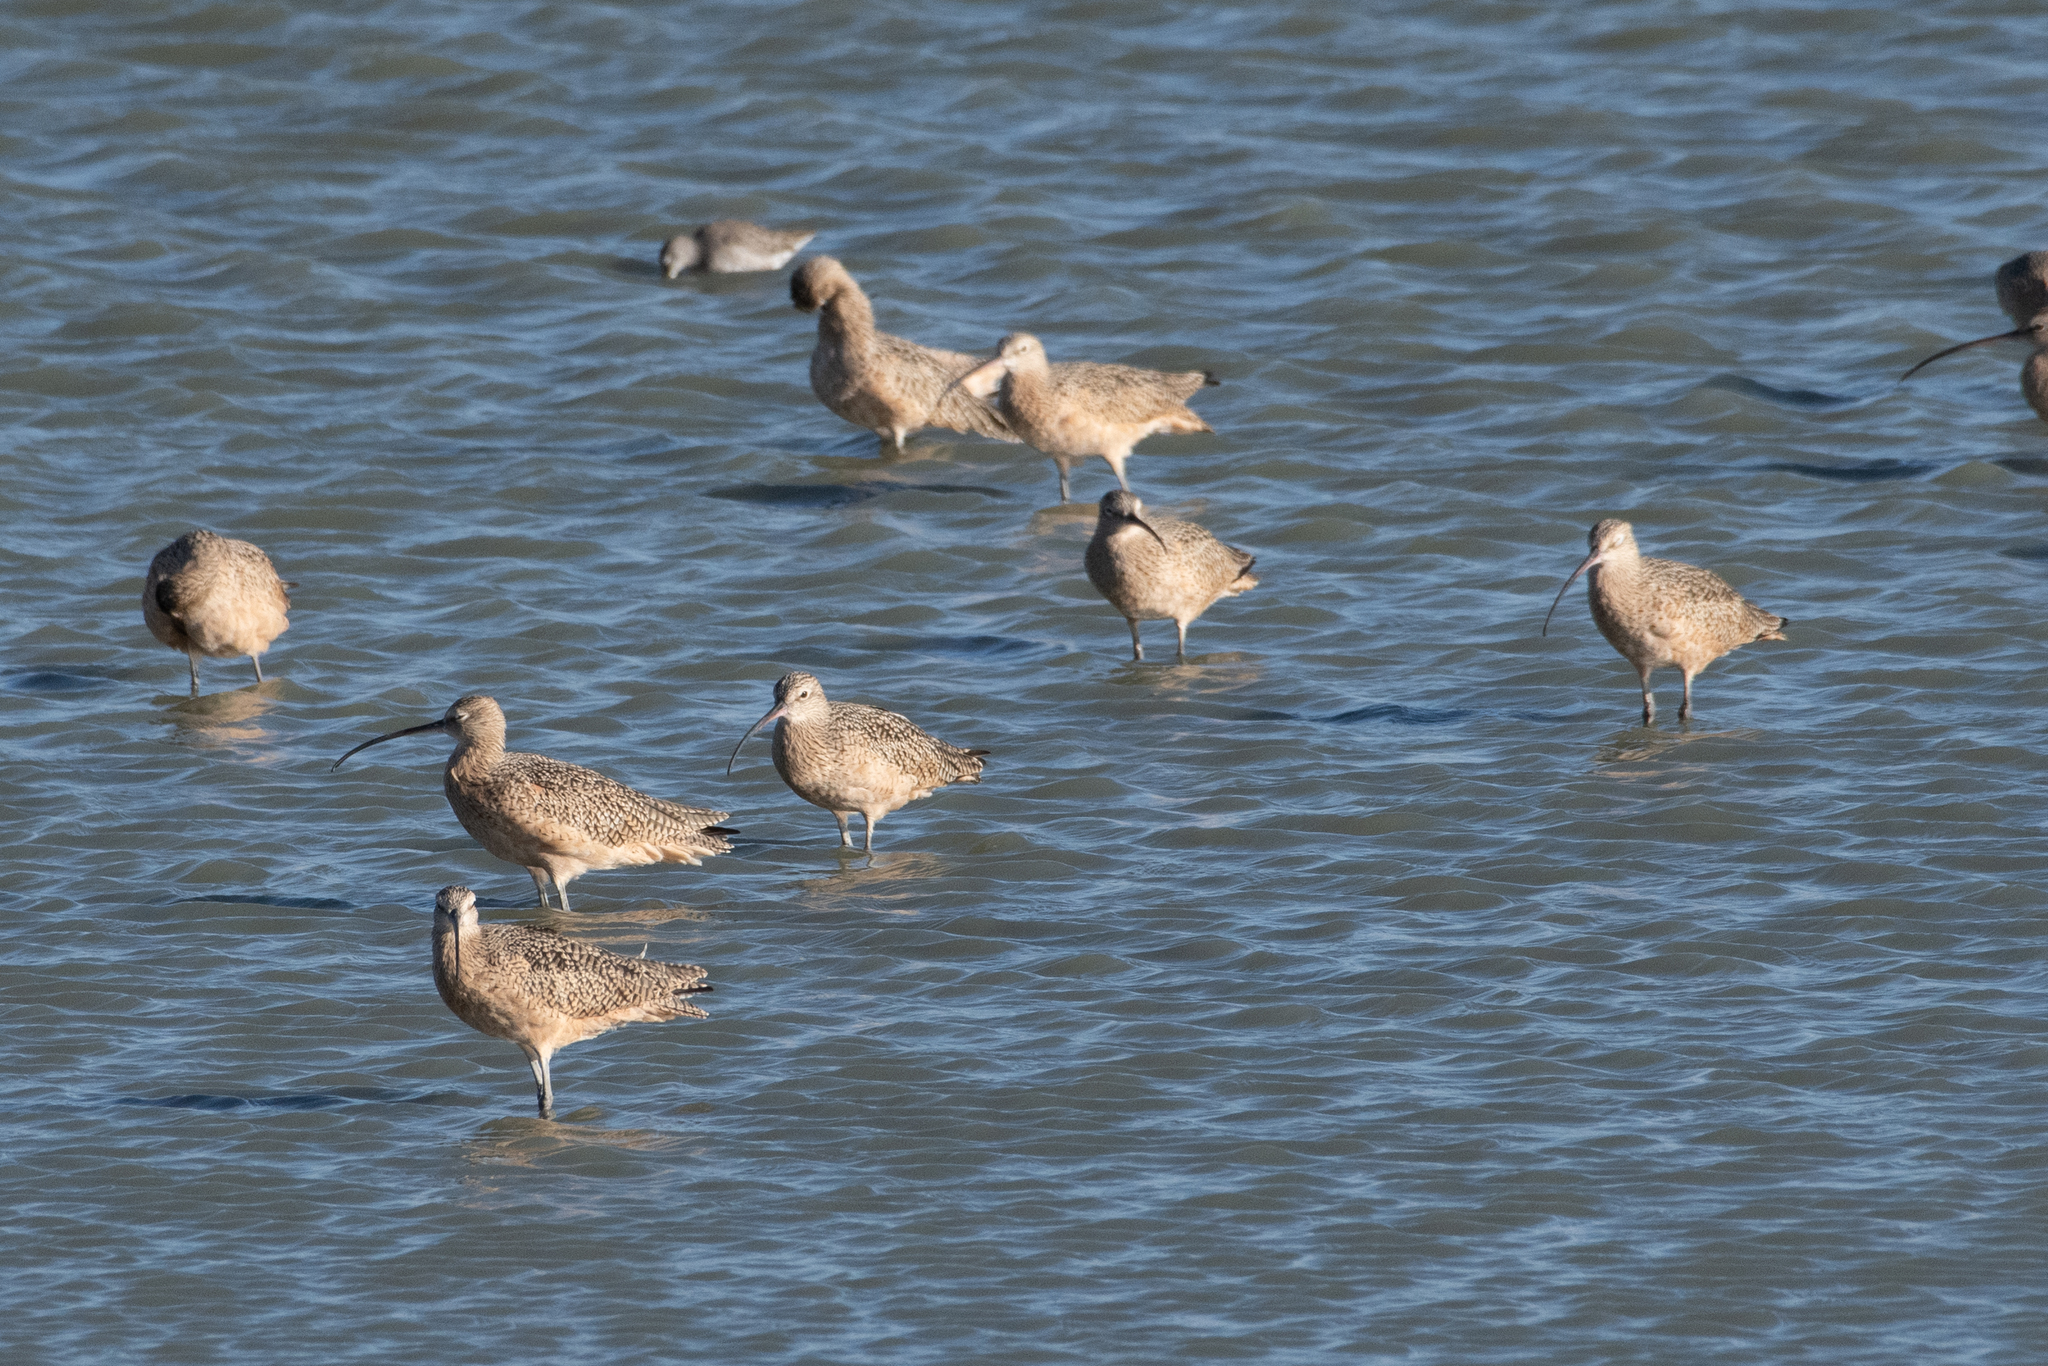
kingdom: Animalia
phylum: Chordata
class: Aves
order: Charadriiformes
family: Scolopacidae
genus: Numenius
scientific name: Numenius americanus
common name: Long-billed curlew
